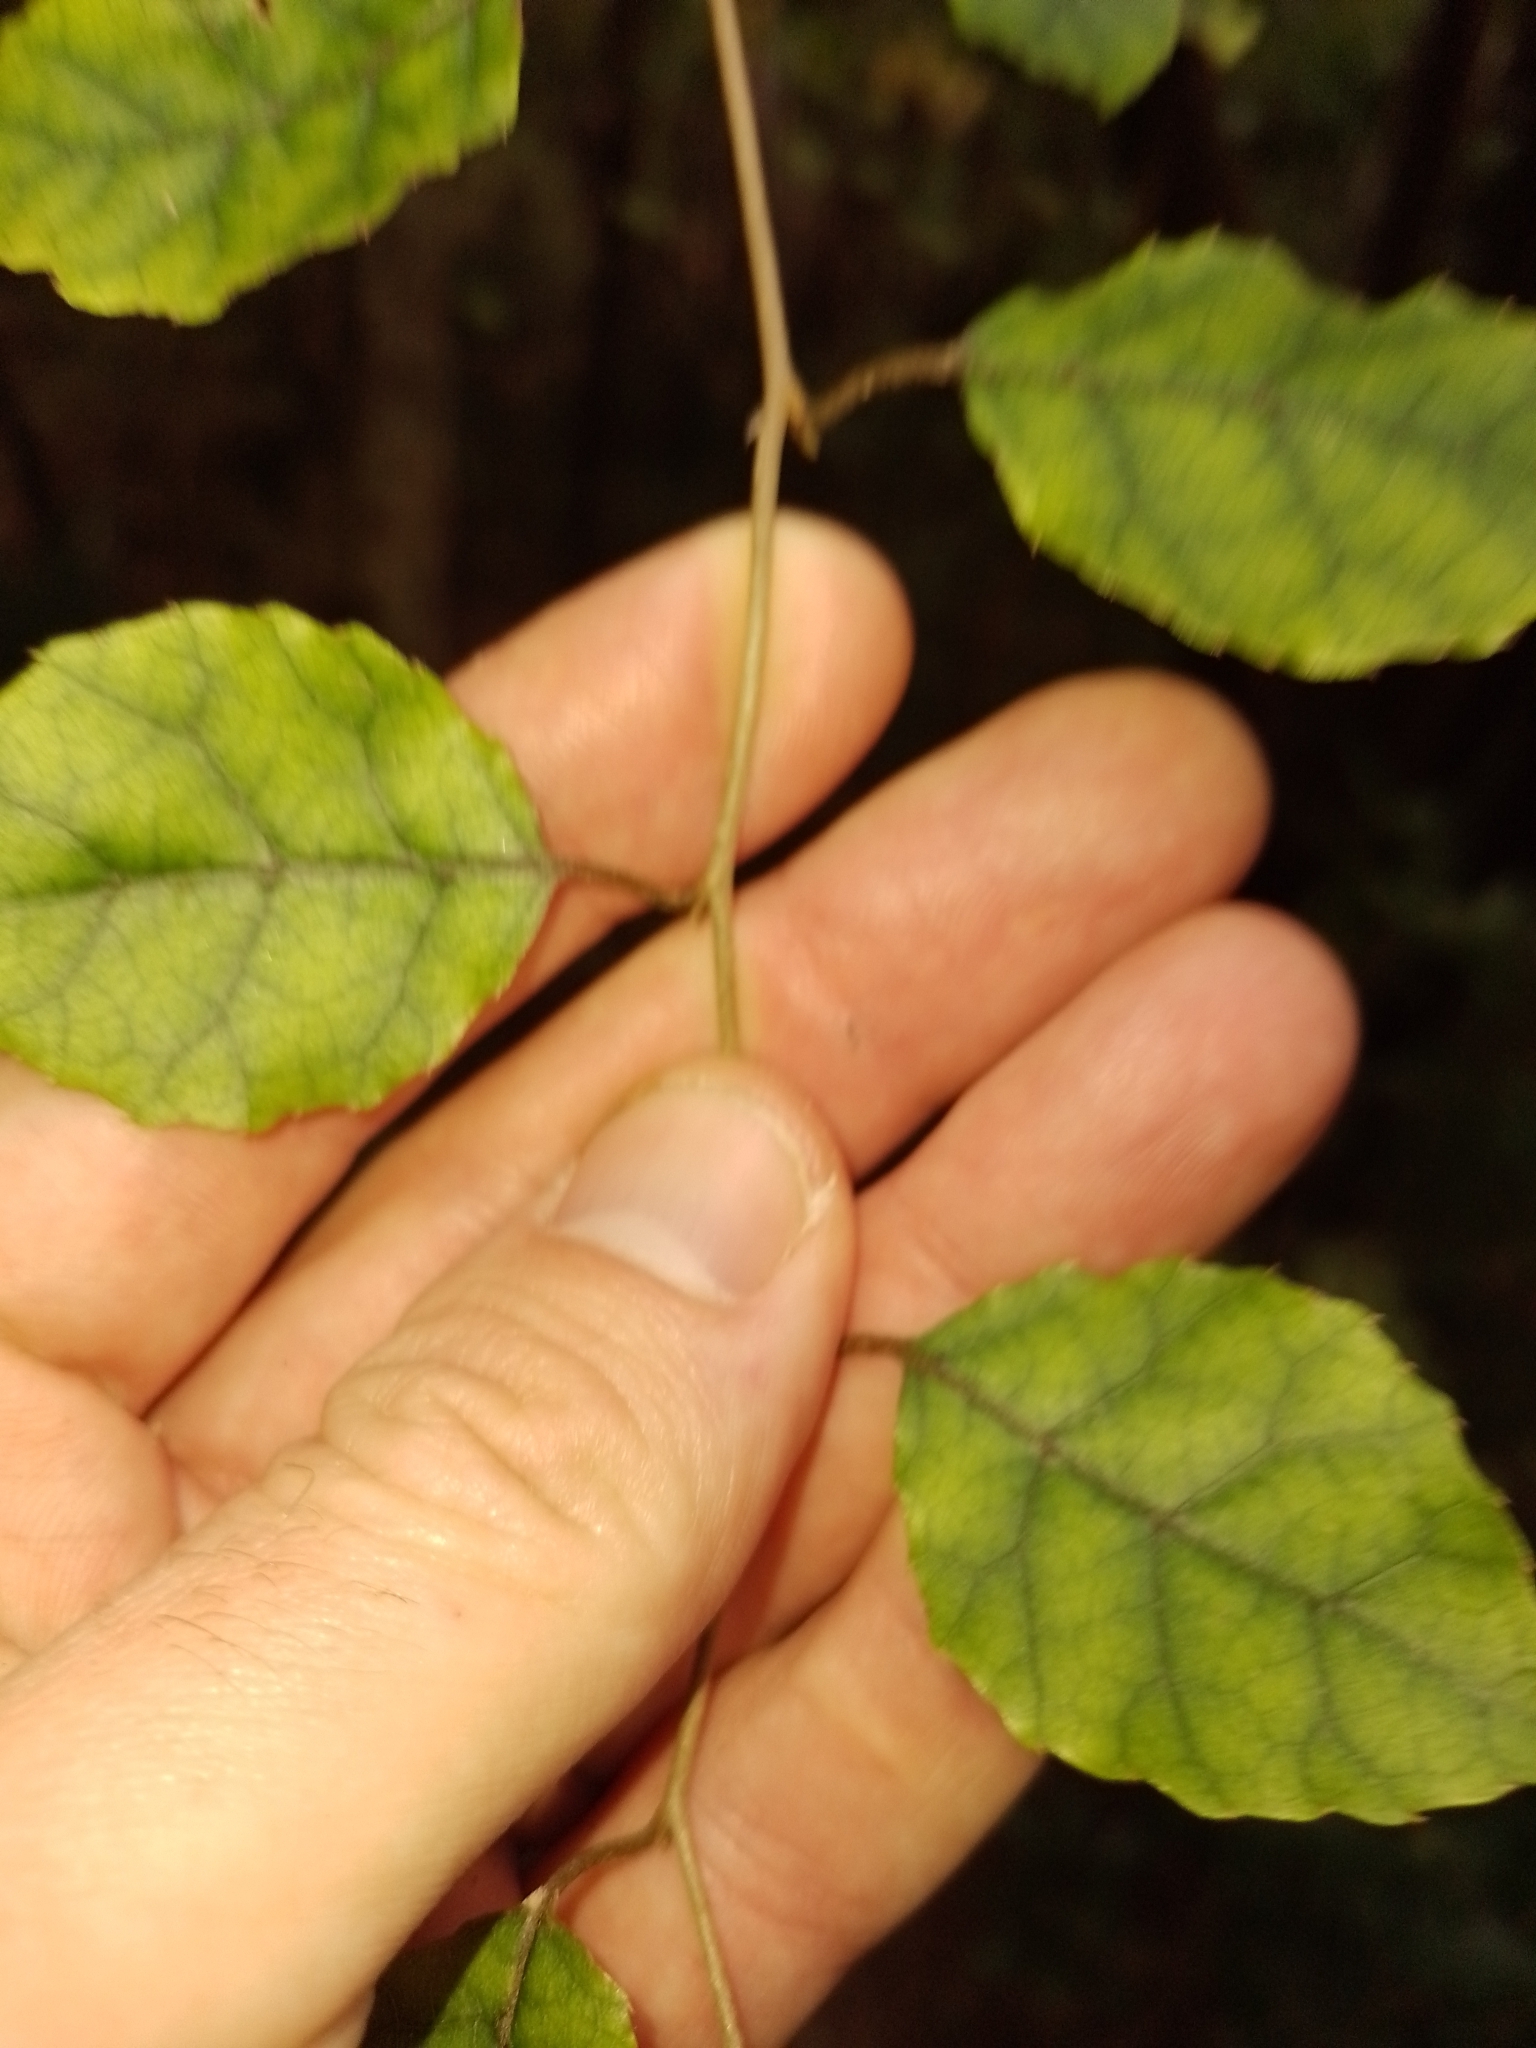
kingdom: Plantae
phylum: Tracheophyta
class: Magnoliopsida
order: Asterales
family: Rousseaceae
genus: Carpodetus
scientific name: Carpodetus serratus
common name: White mapau
